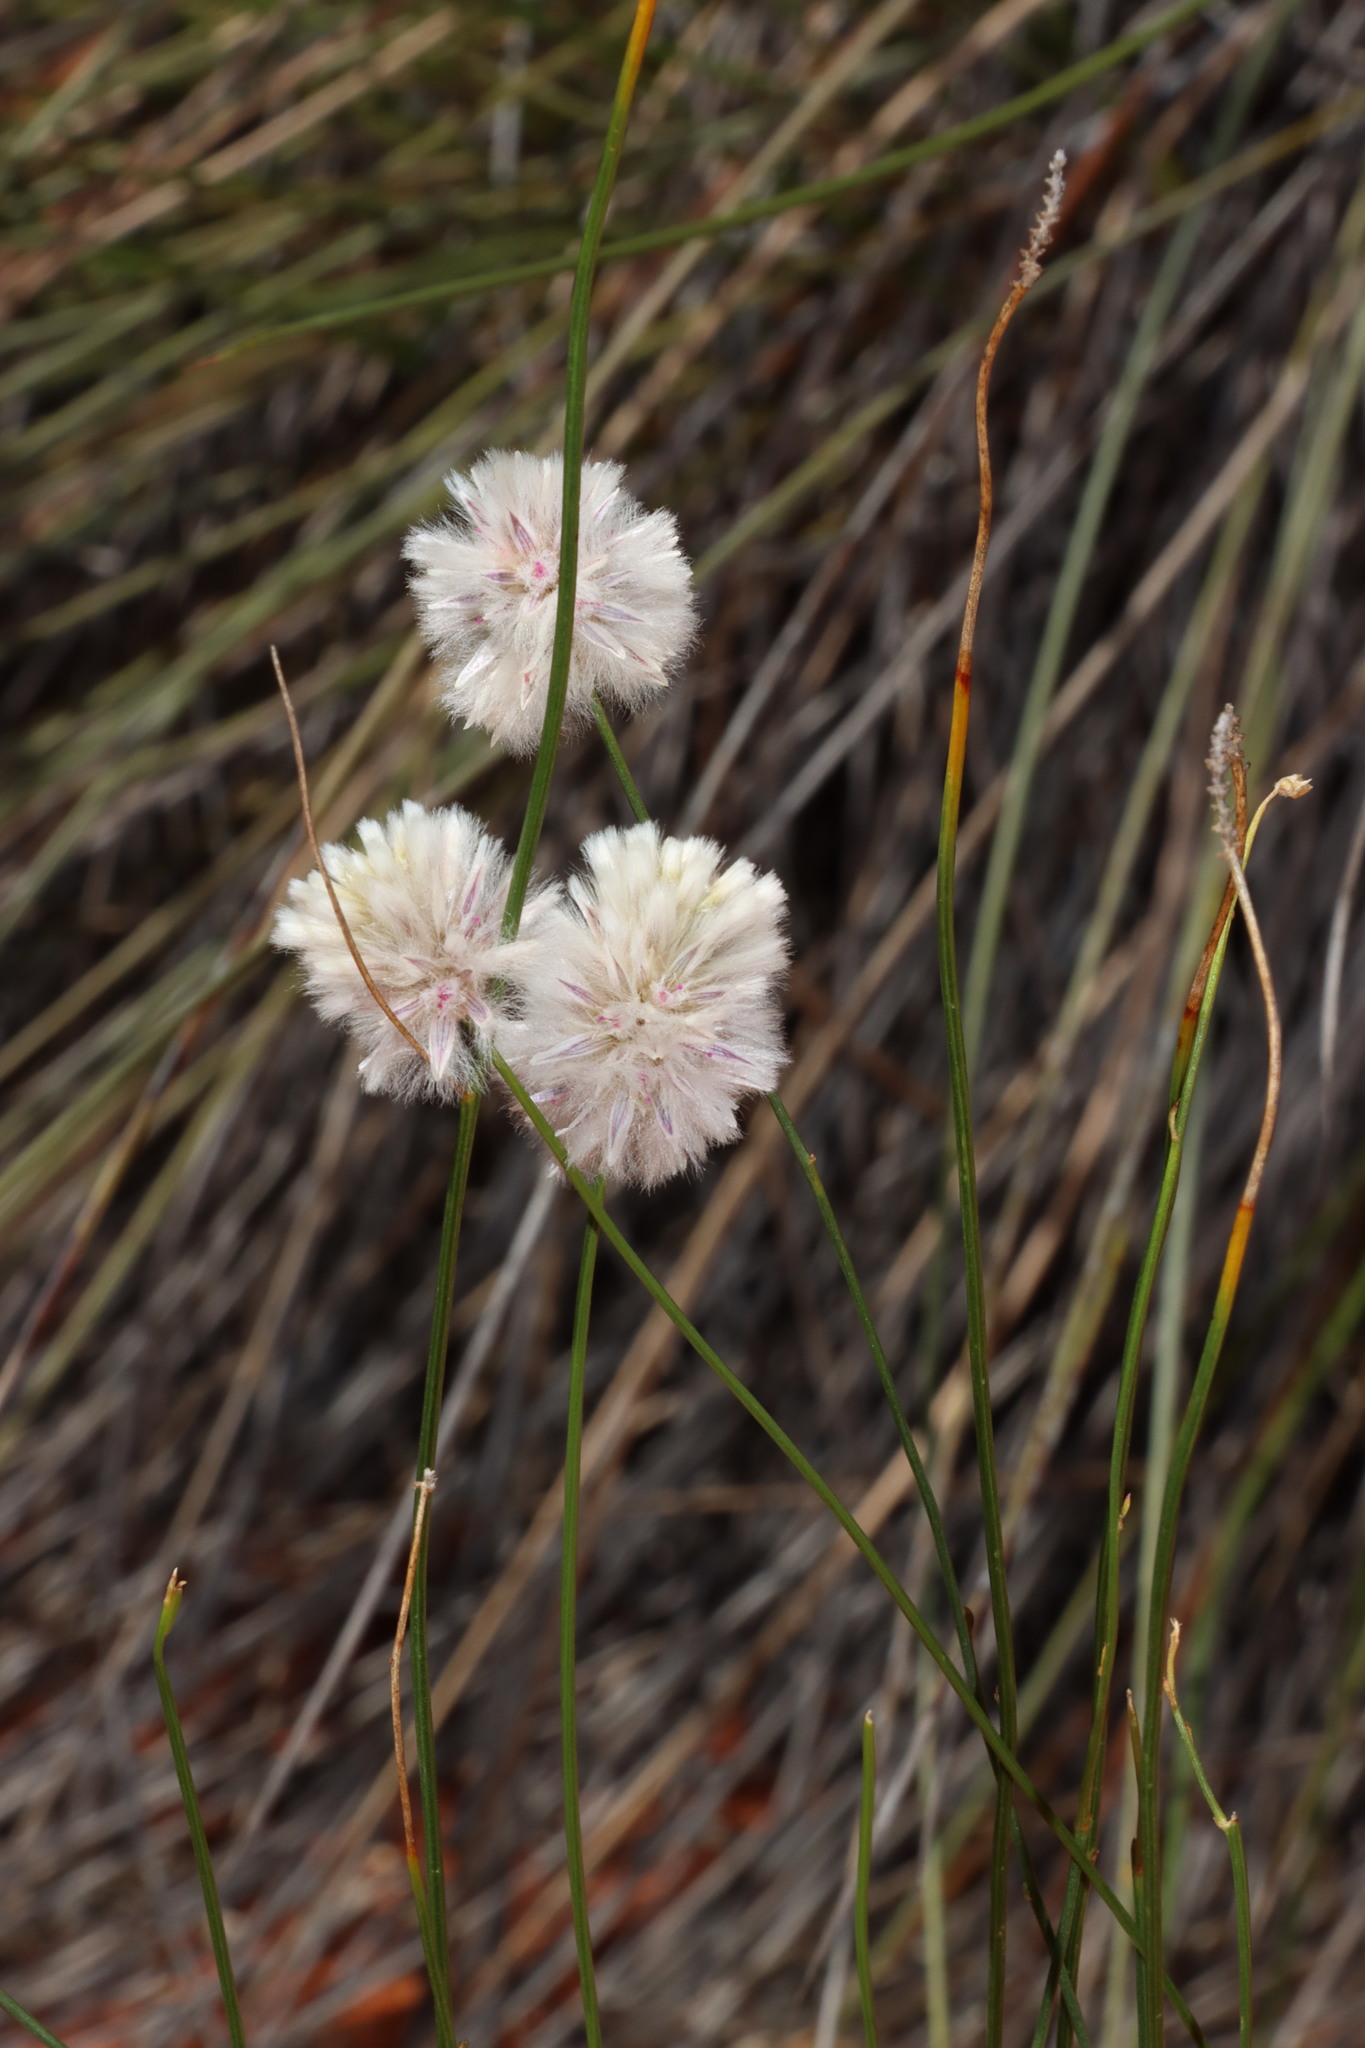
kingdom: Plantae
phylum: Tracheophyta
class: Magnoliopsida
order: Caryophyllales
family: Amaranthaceae
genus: Ptilotus
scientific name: Ptilotus schwartzii
